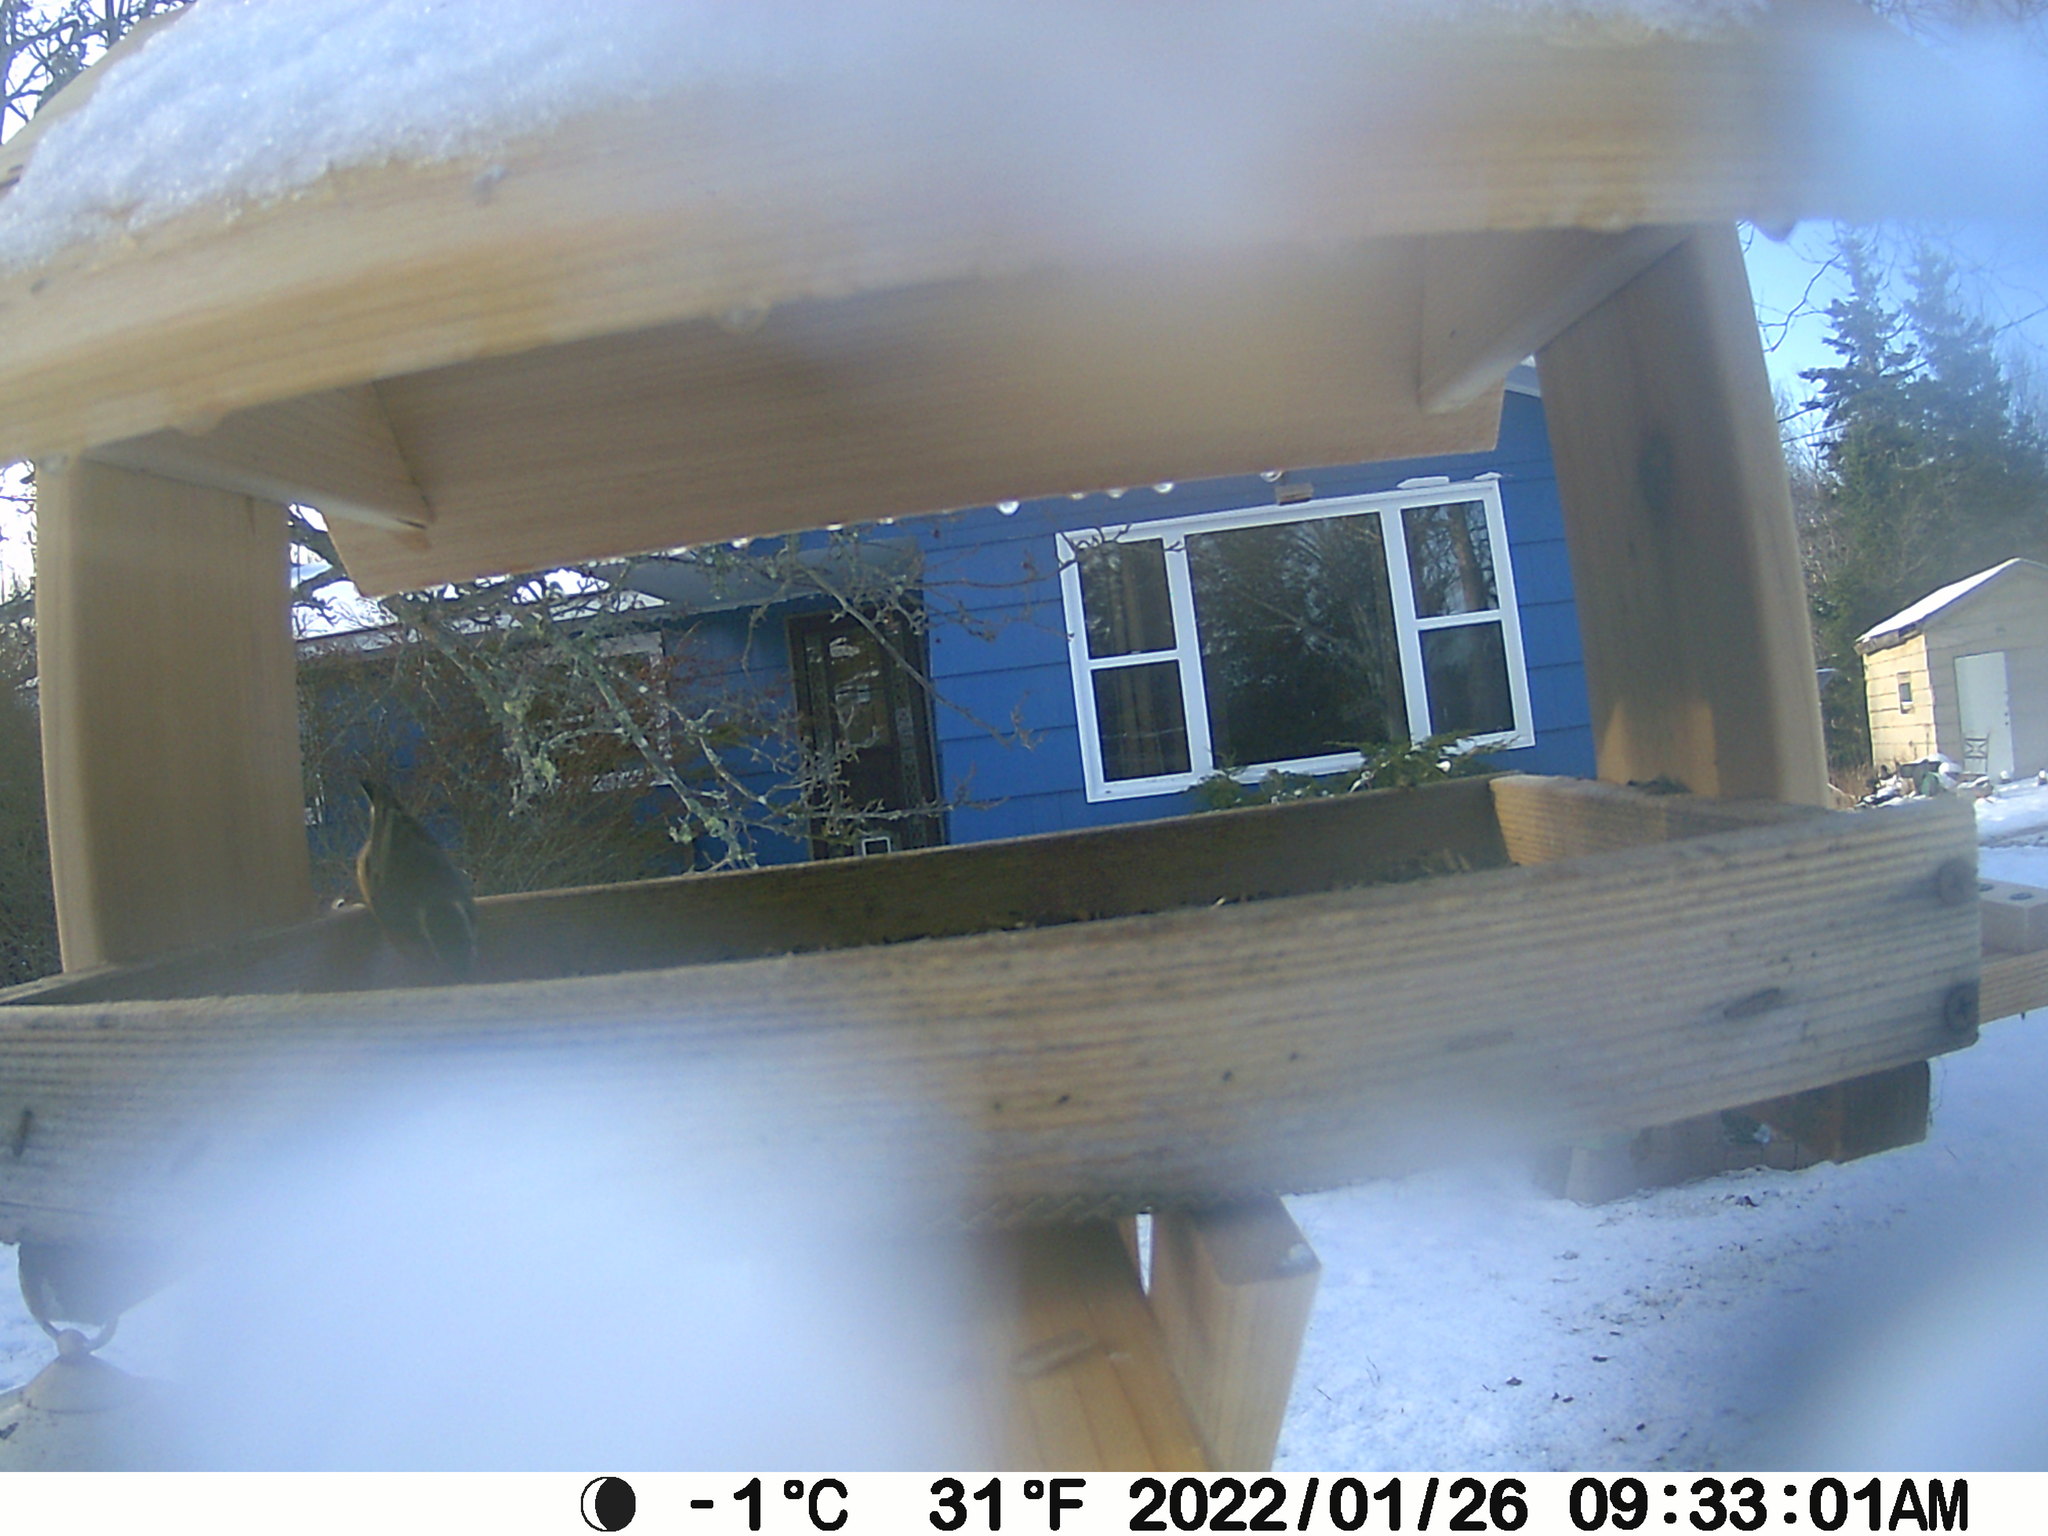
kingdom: Animalia
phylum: Chordata
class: Aves
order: Passeriformes
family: Sittidae
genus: Sitta
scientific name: Sitta canadensis
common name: Red-breasted nuthatch
